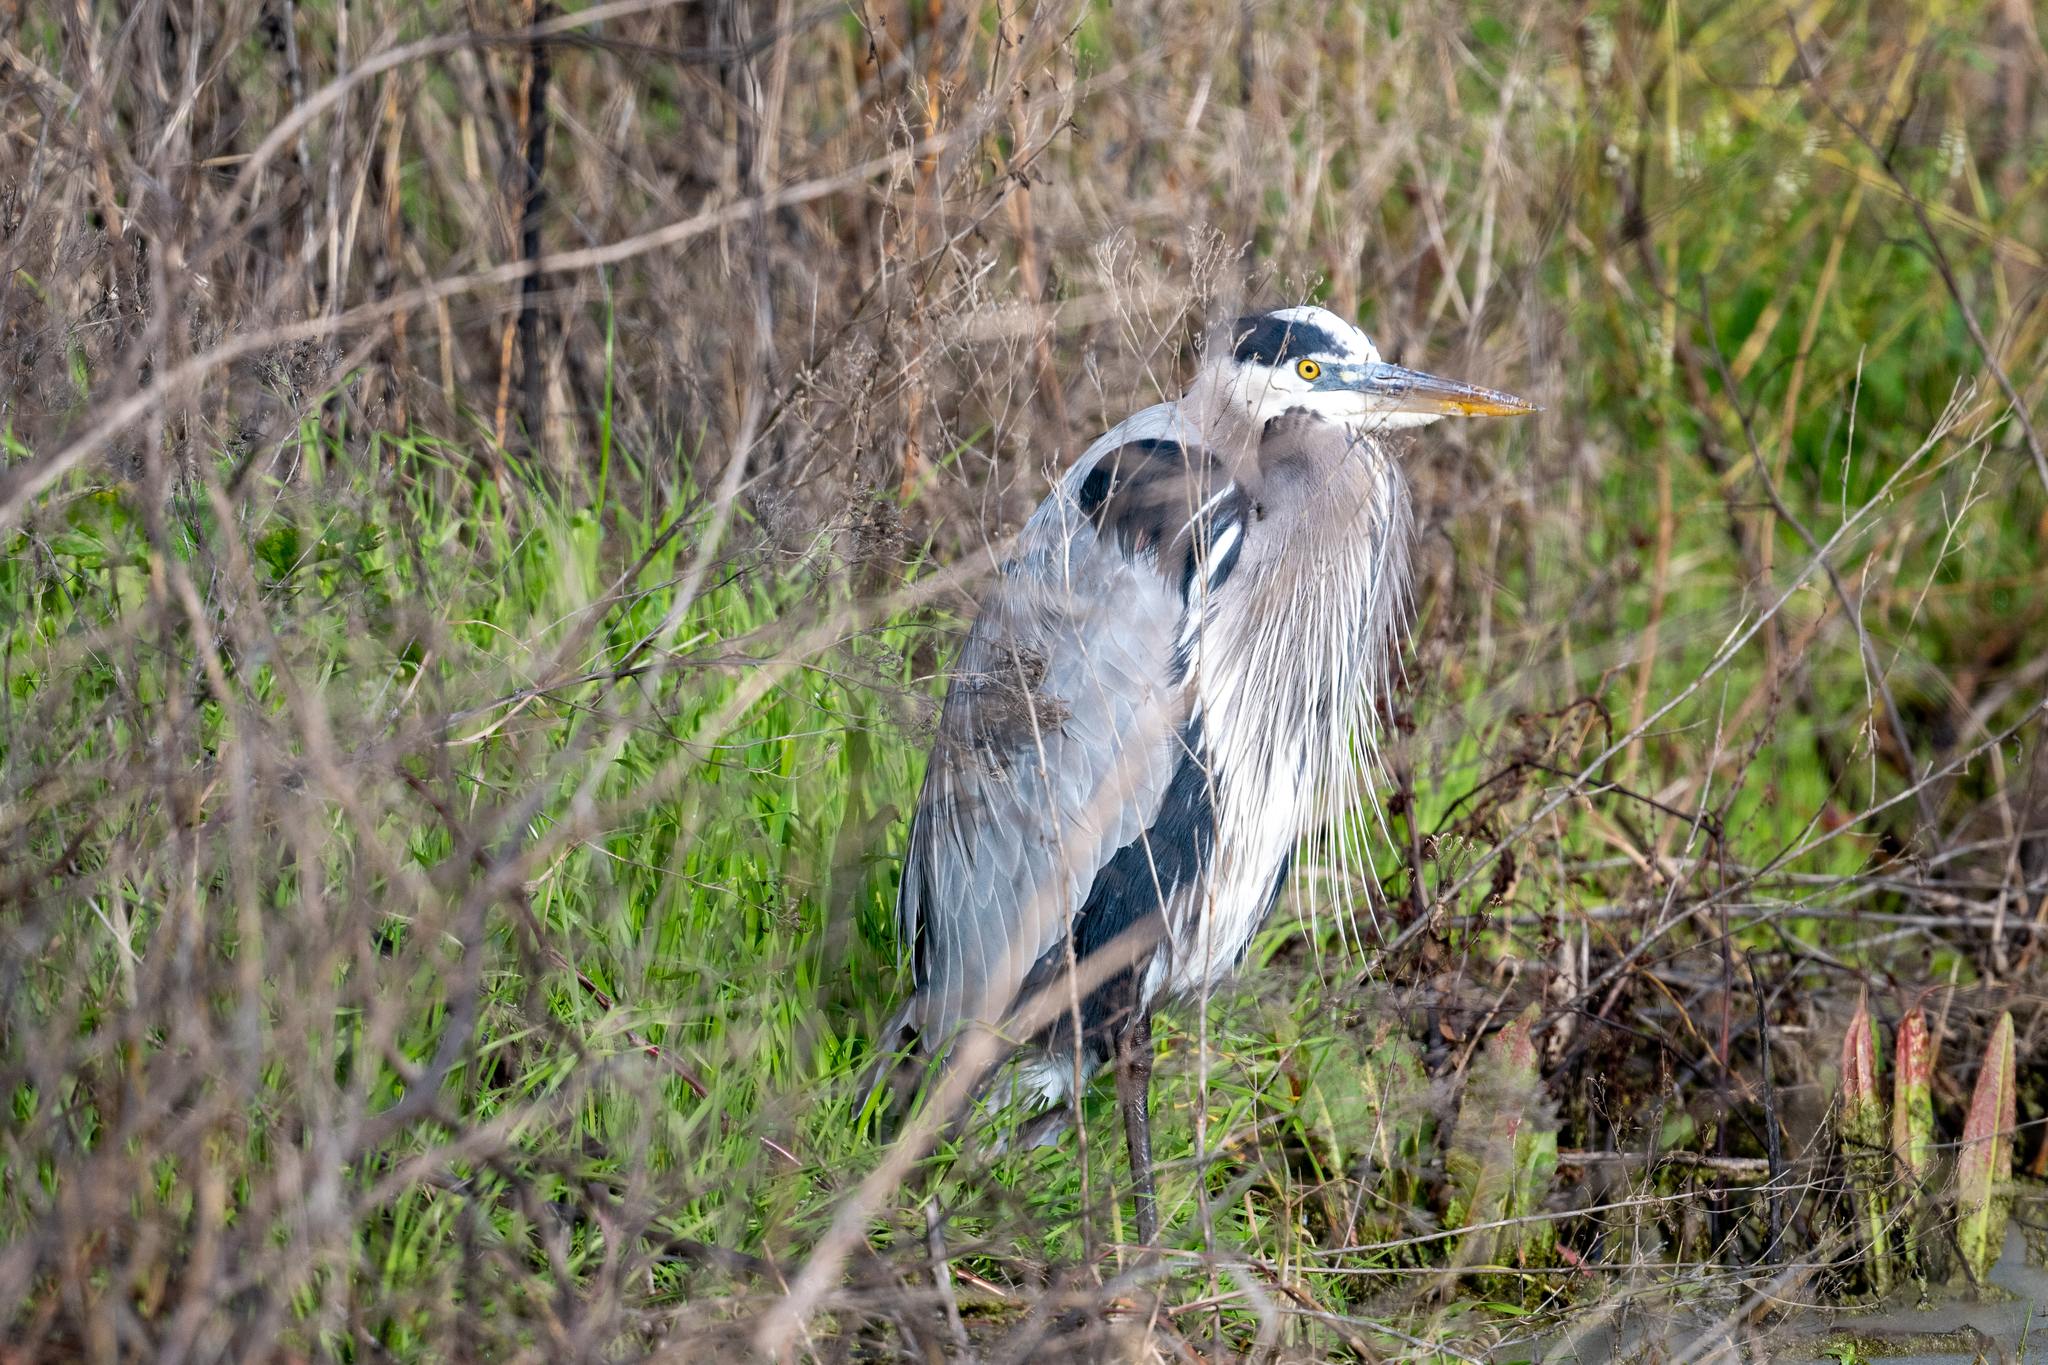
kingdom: Animalia
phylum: Chordata
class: Aves
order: Pelecaniformes
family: Ardeidae
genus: Ardea
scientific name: Ardea herodias
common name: Great blue heron
